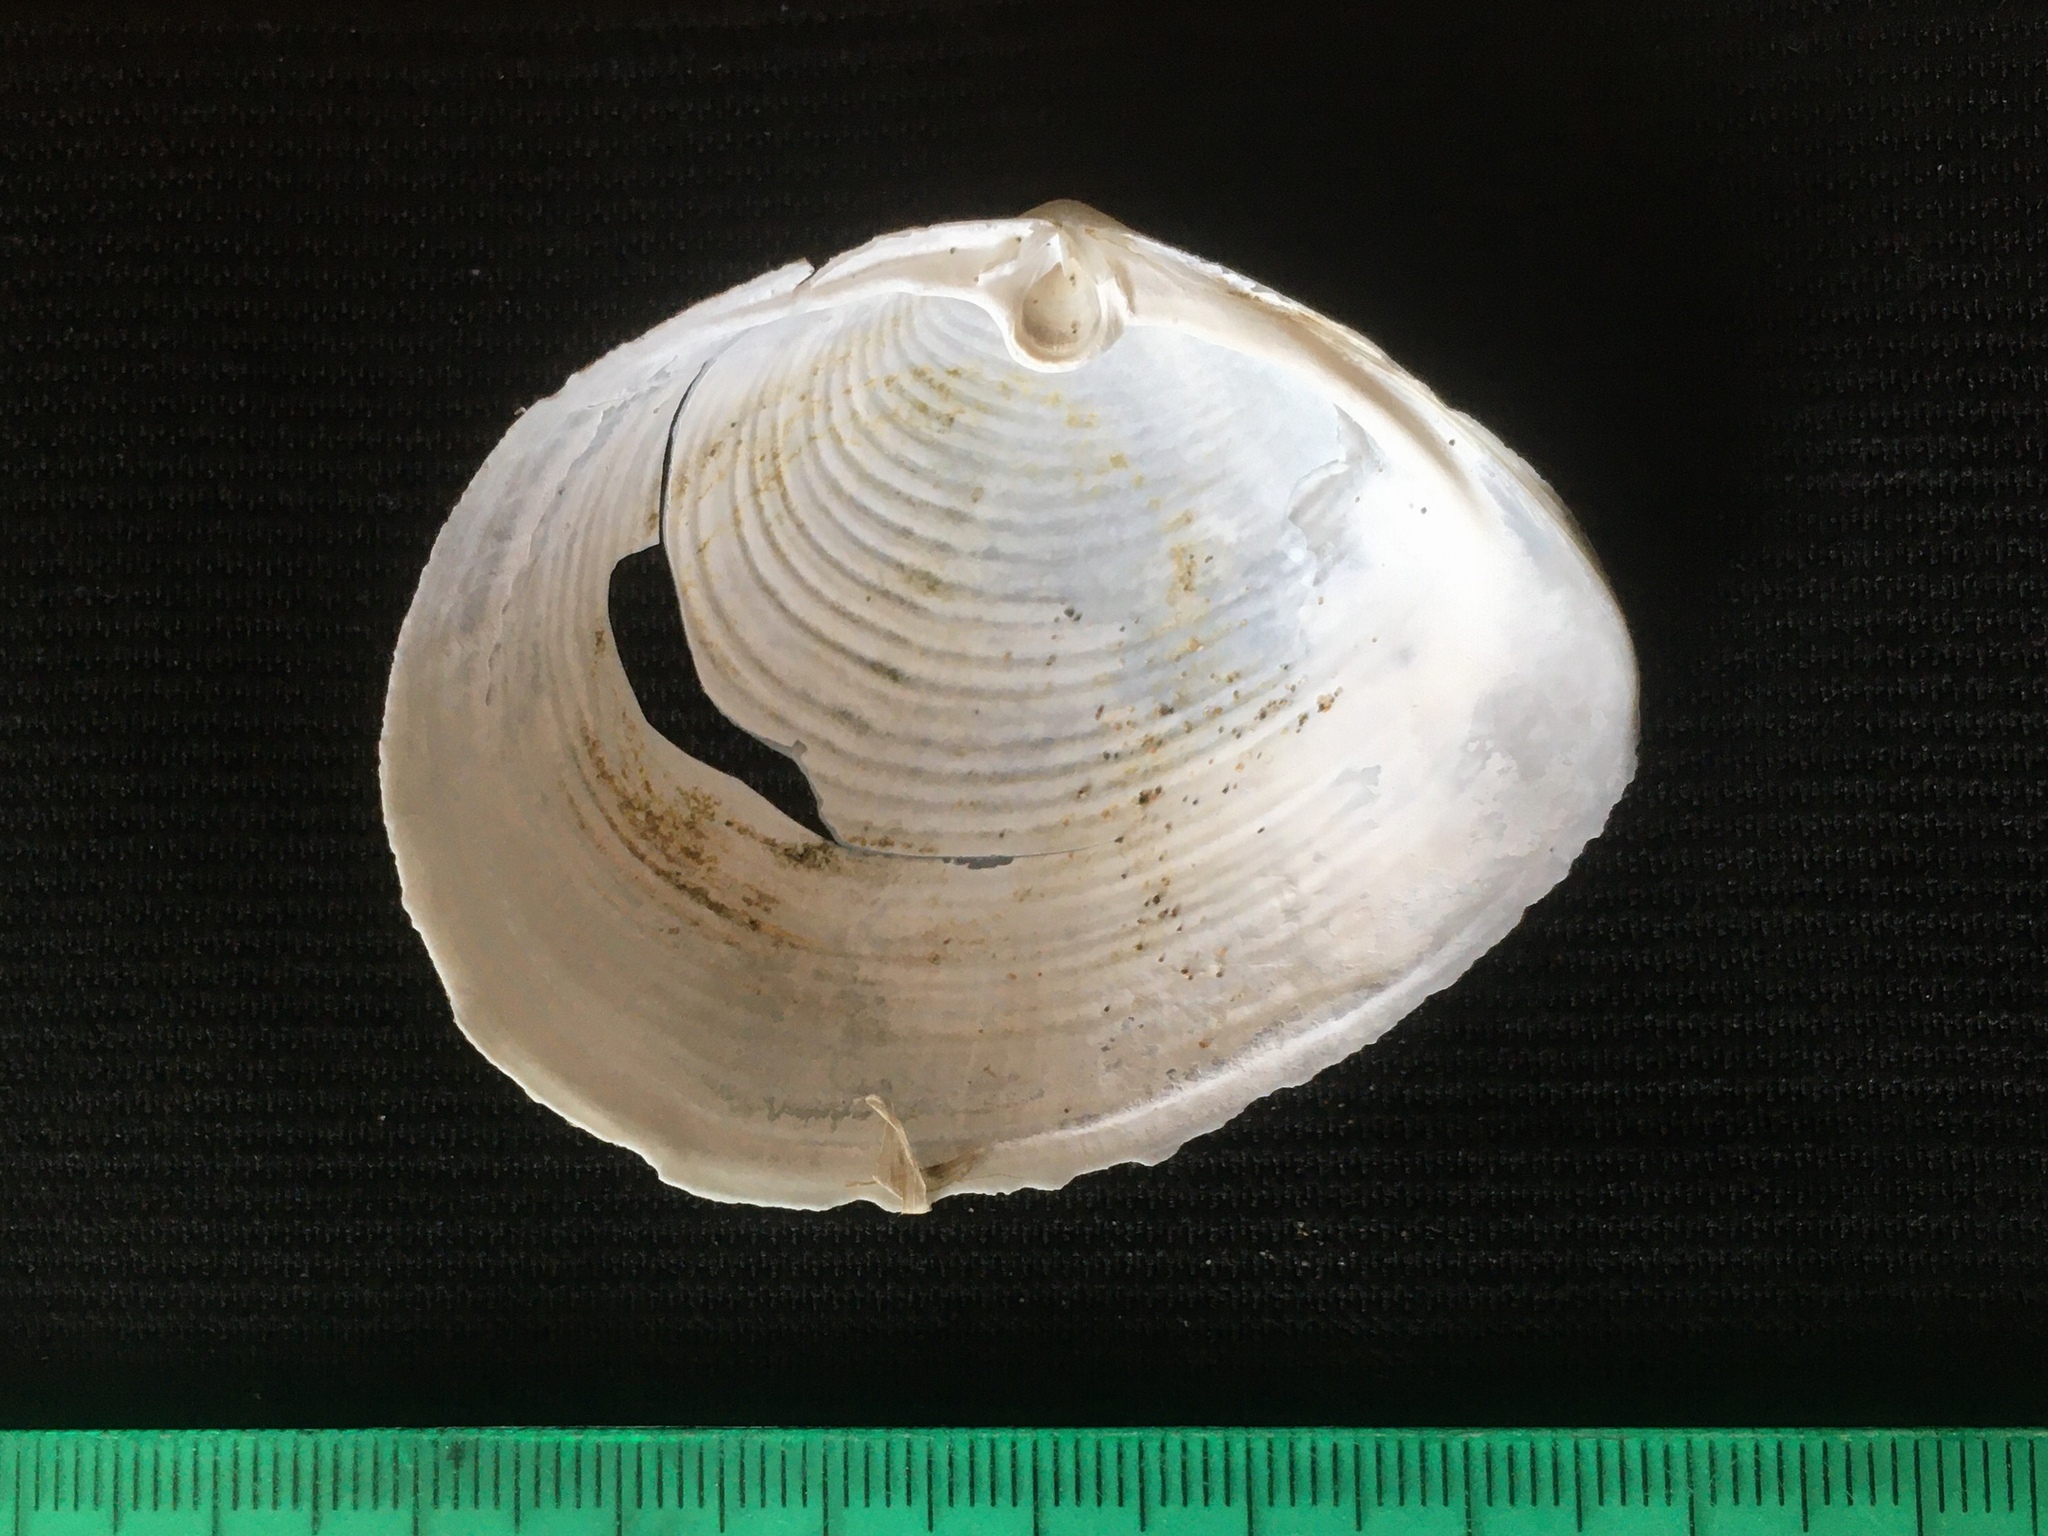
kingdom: Animalia
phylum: Mollusca
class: Bivalvia
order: Venerida
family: Anatinellidae
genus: Raeta
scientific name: Raeta plicatella
